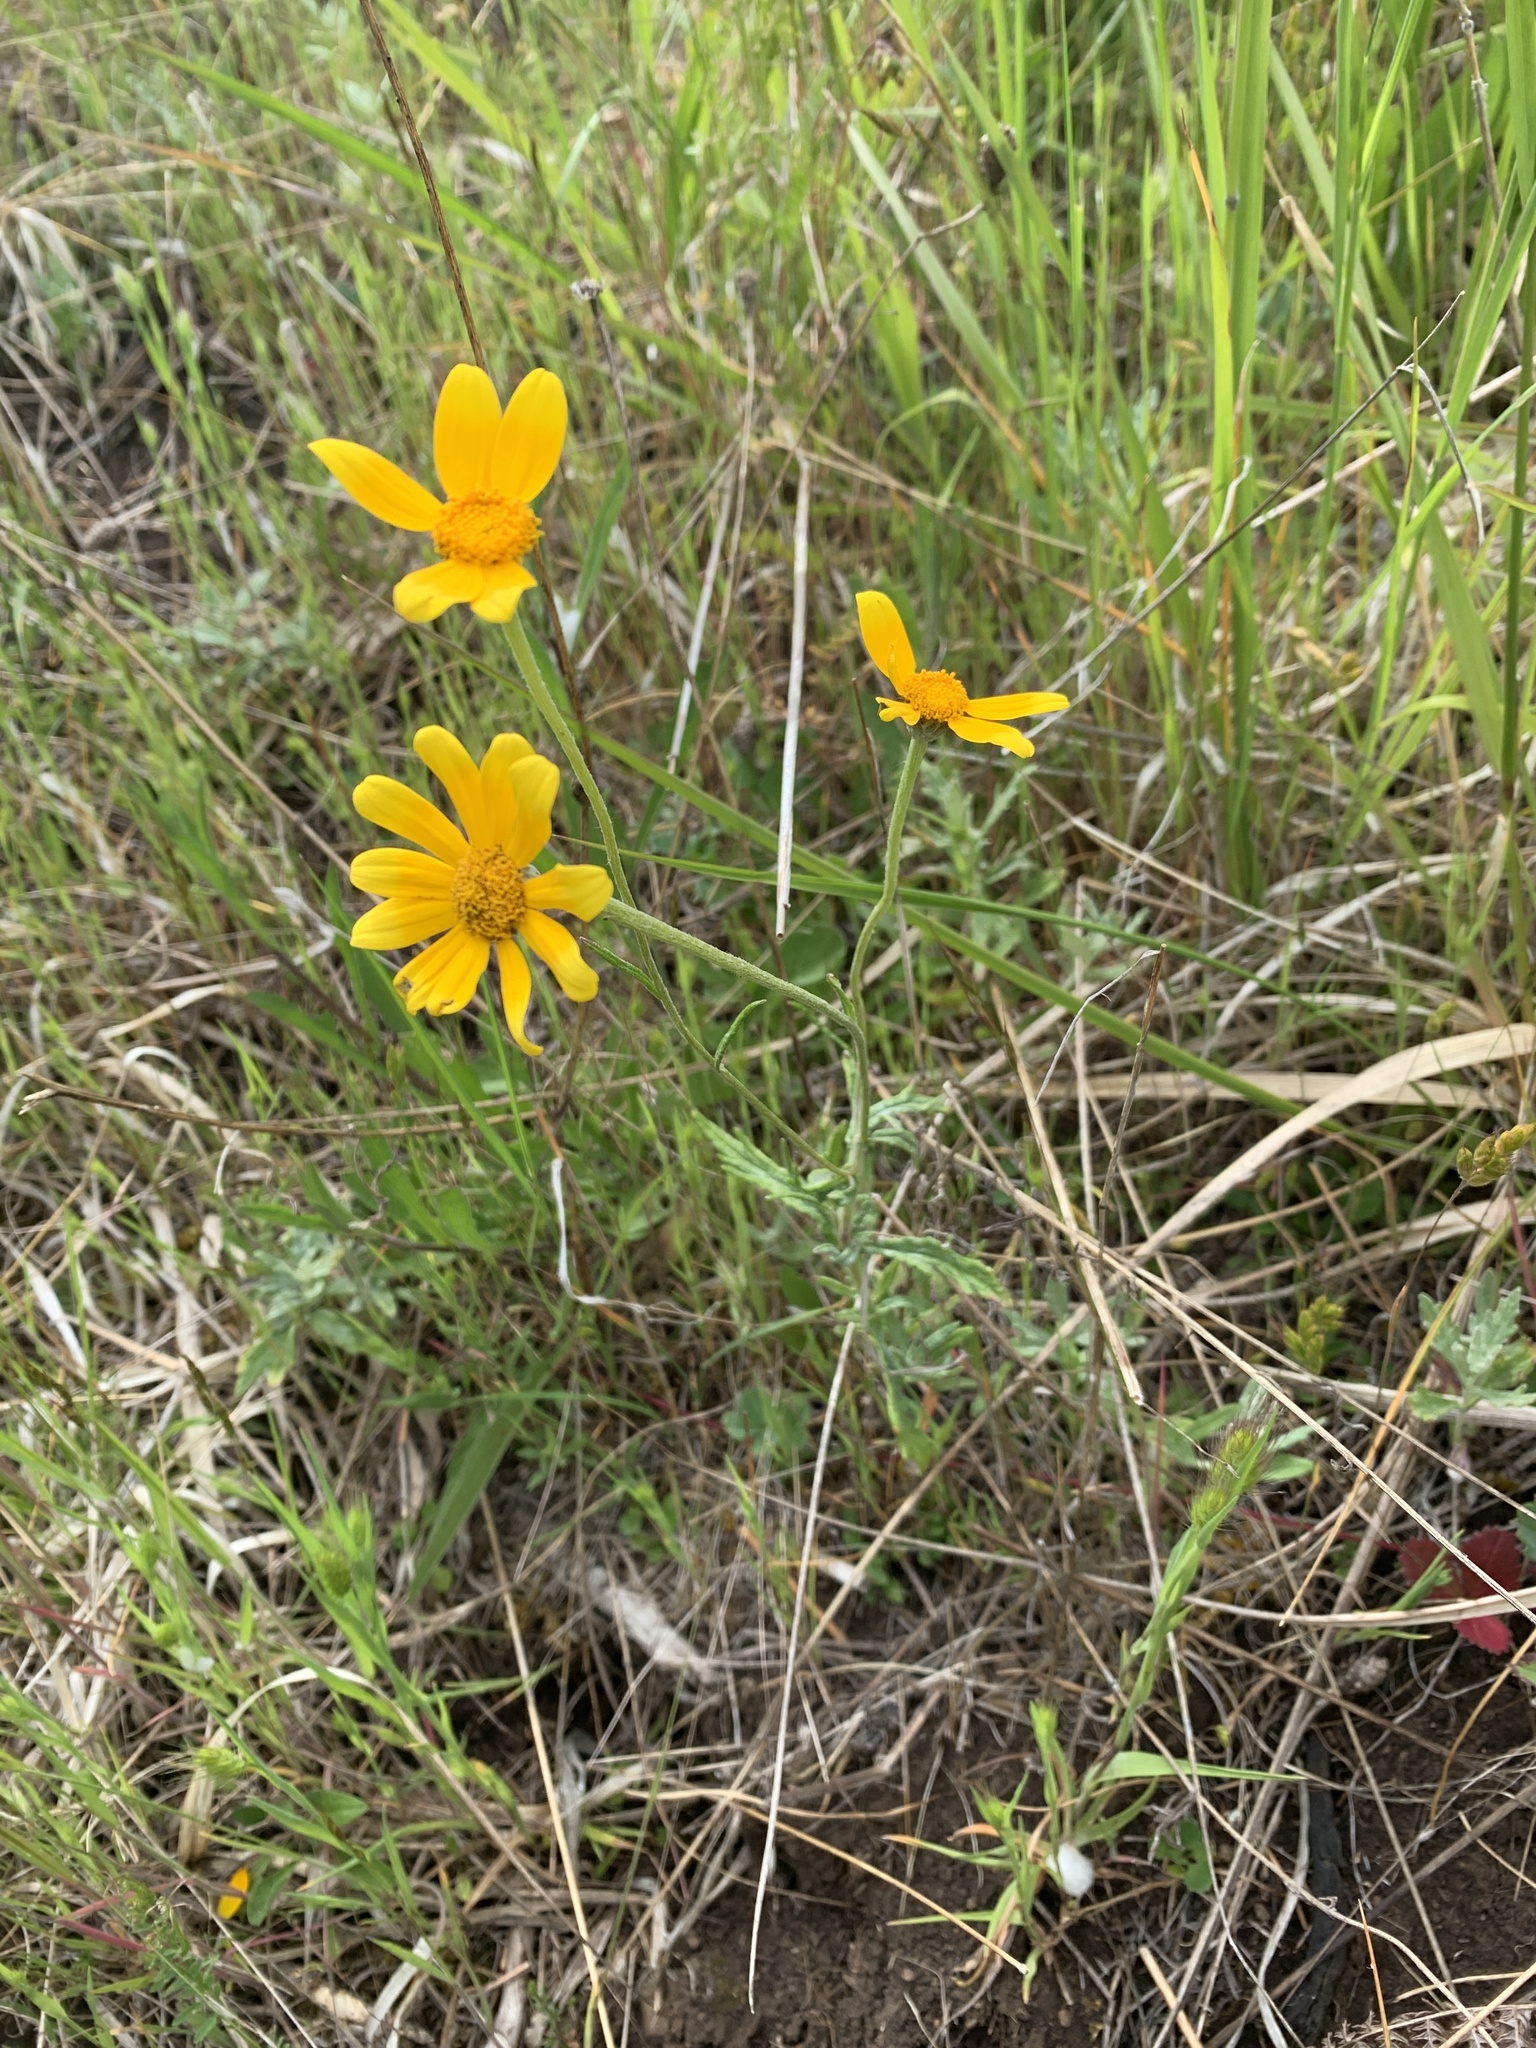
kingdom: Plantae
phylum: Tracheophyta
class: Magnoliopsida
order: Asterales
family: Asteraceae
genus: Eriophyllum
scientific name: Eriophyllum lanatum
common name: Common woolly-sunflower
